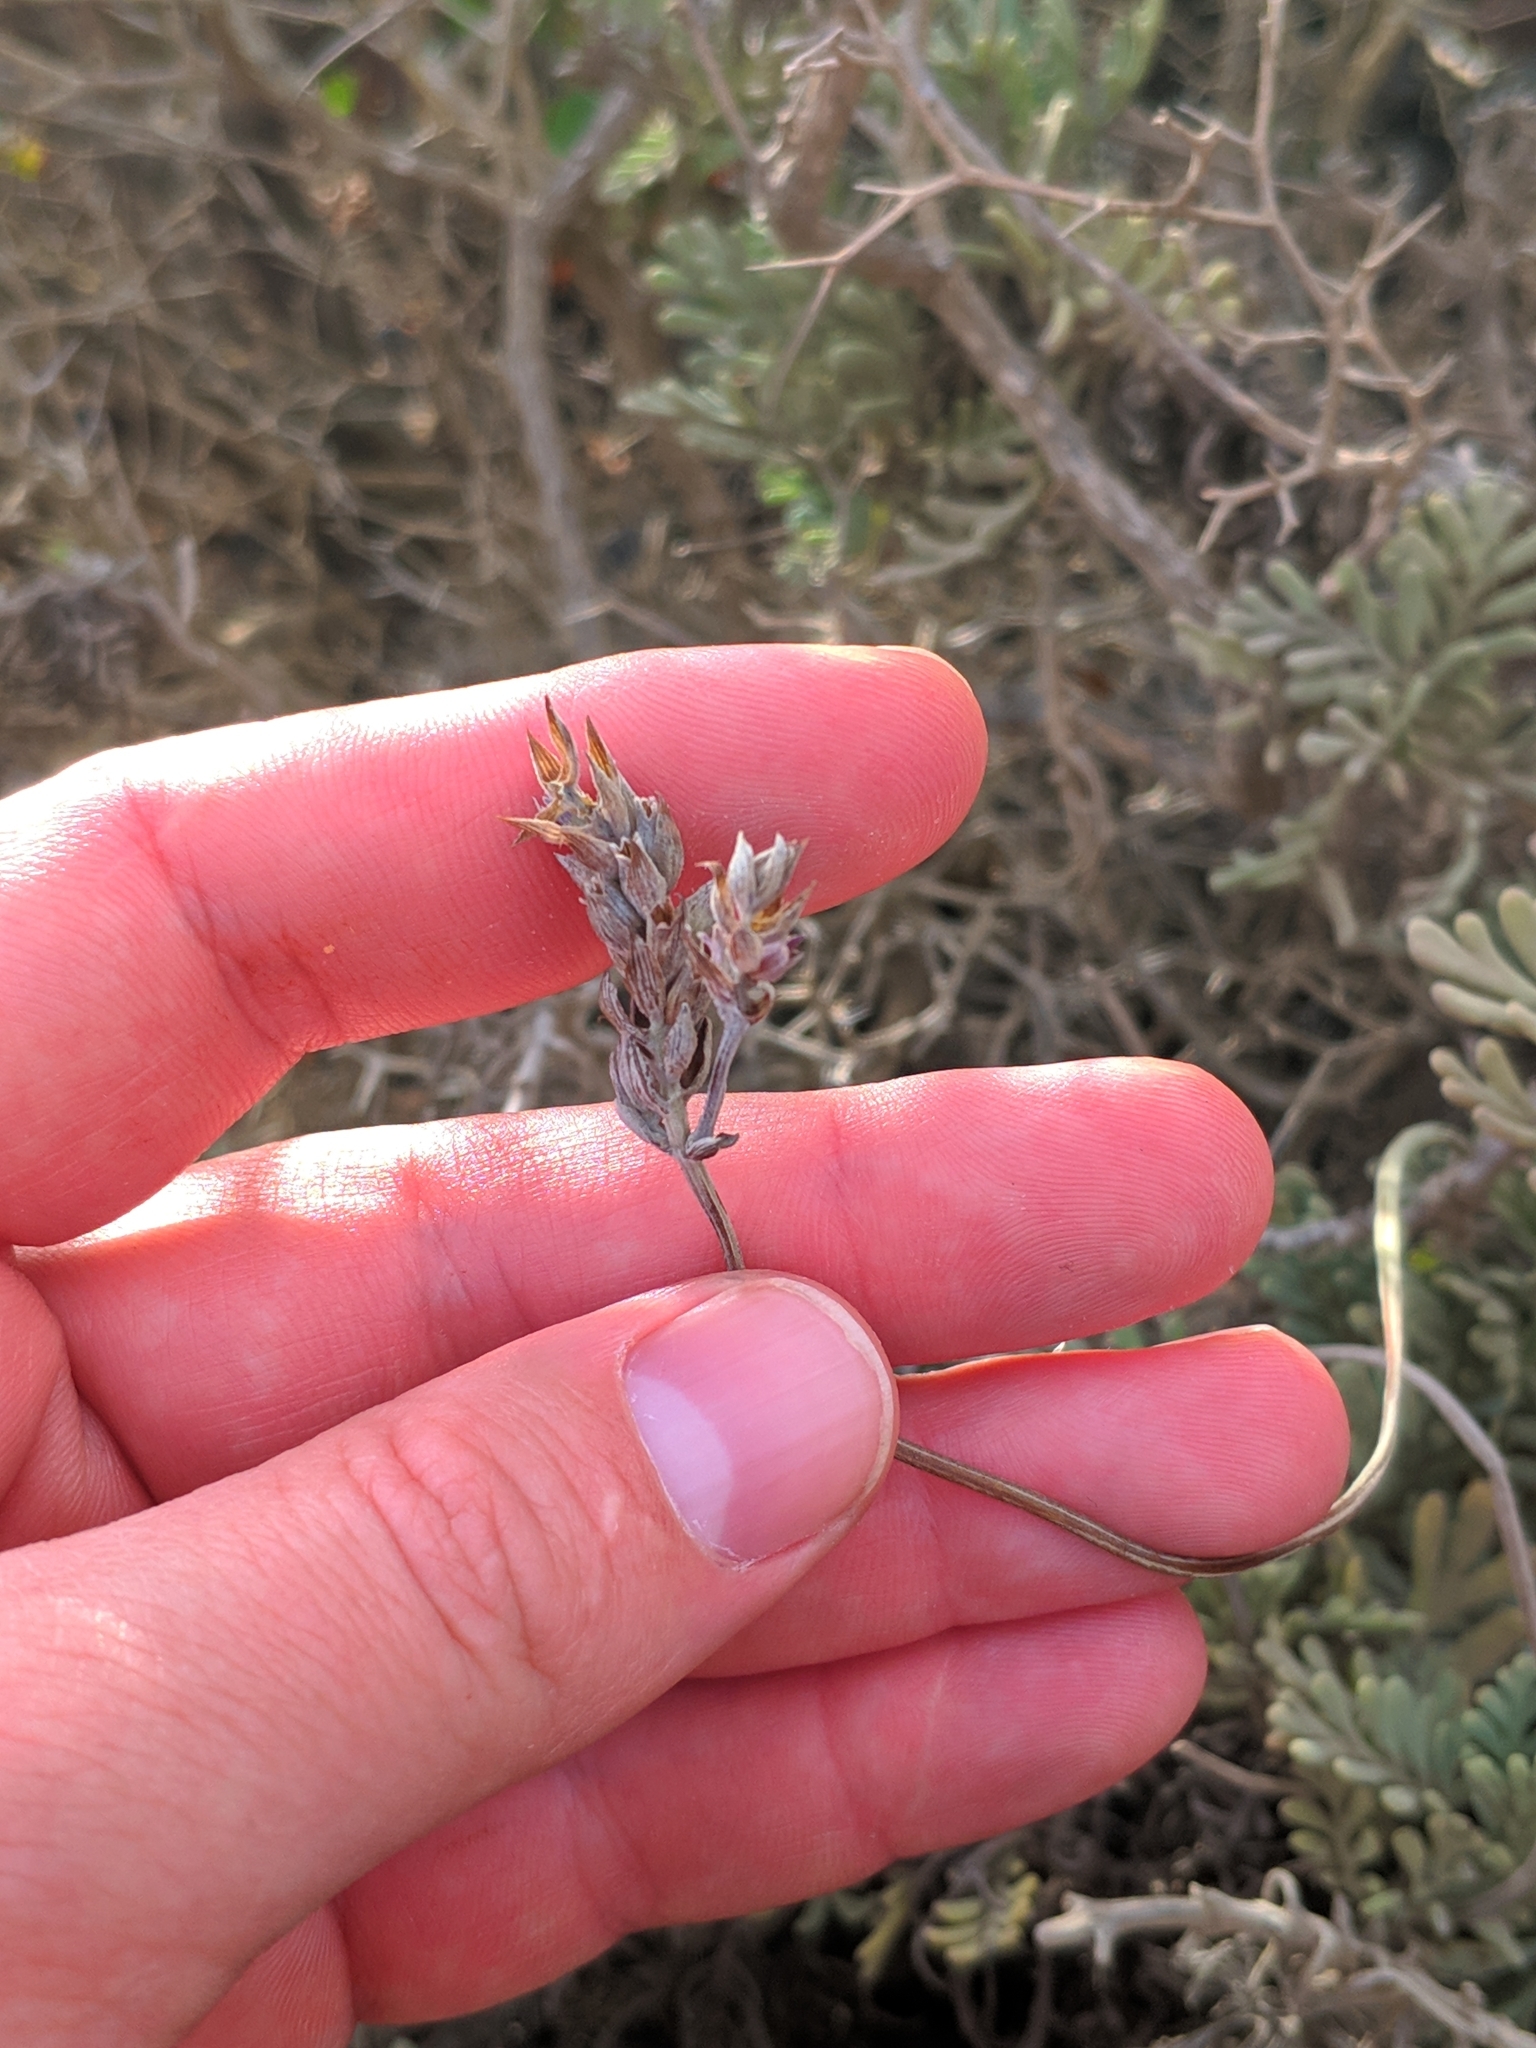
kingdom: Plantae
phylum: Tracheophyta
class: Magnoliopsida
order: Lamiales
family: Lamiaceae
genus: Lavandula
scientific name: Lavandula pinnata
